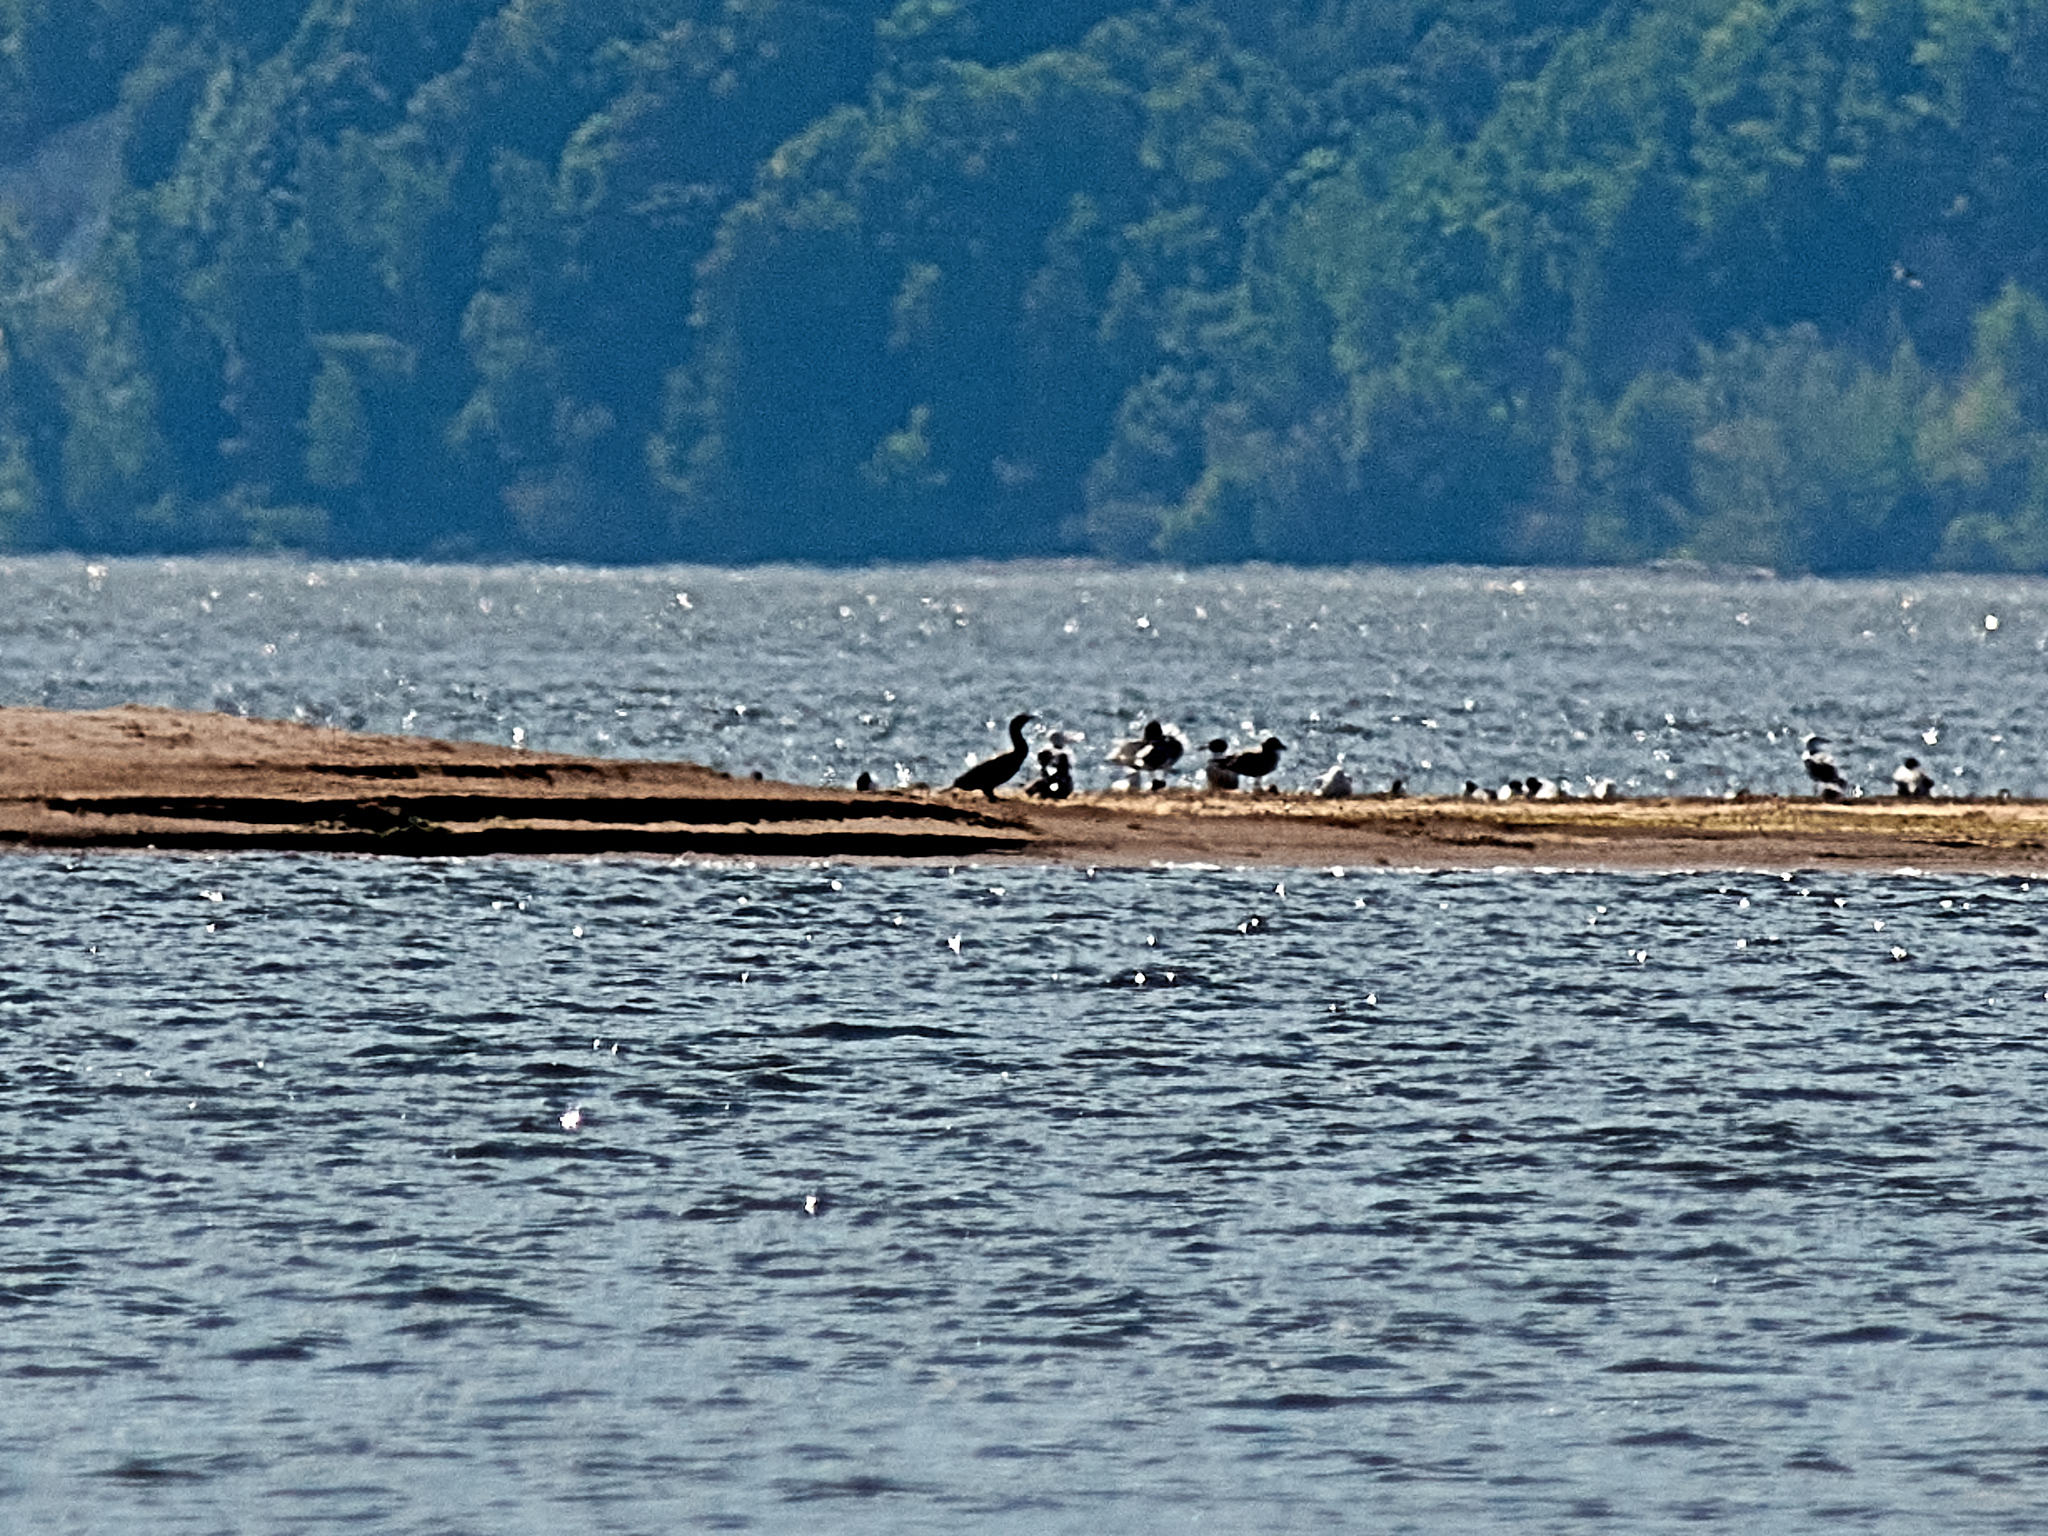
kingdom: Animalia
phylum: Chordata
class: Aves
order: Suliformes
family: Phalacrocoracidae
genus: Phalacrocorax
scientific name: Phalacrocorax carbo
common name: Great cormorant
